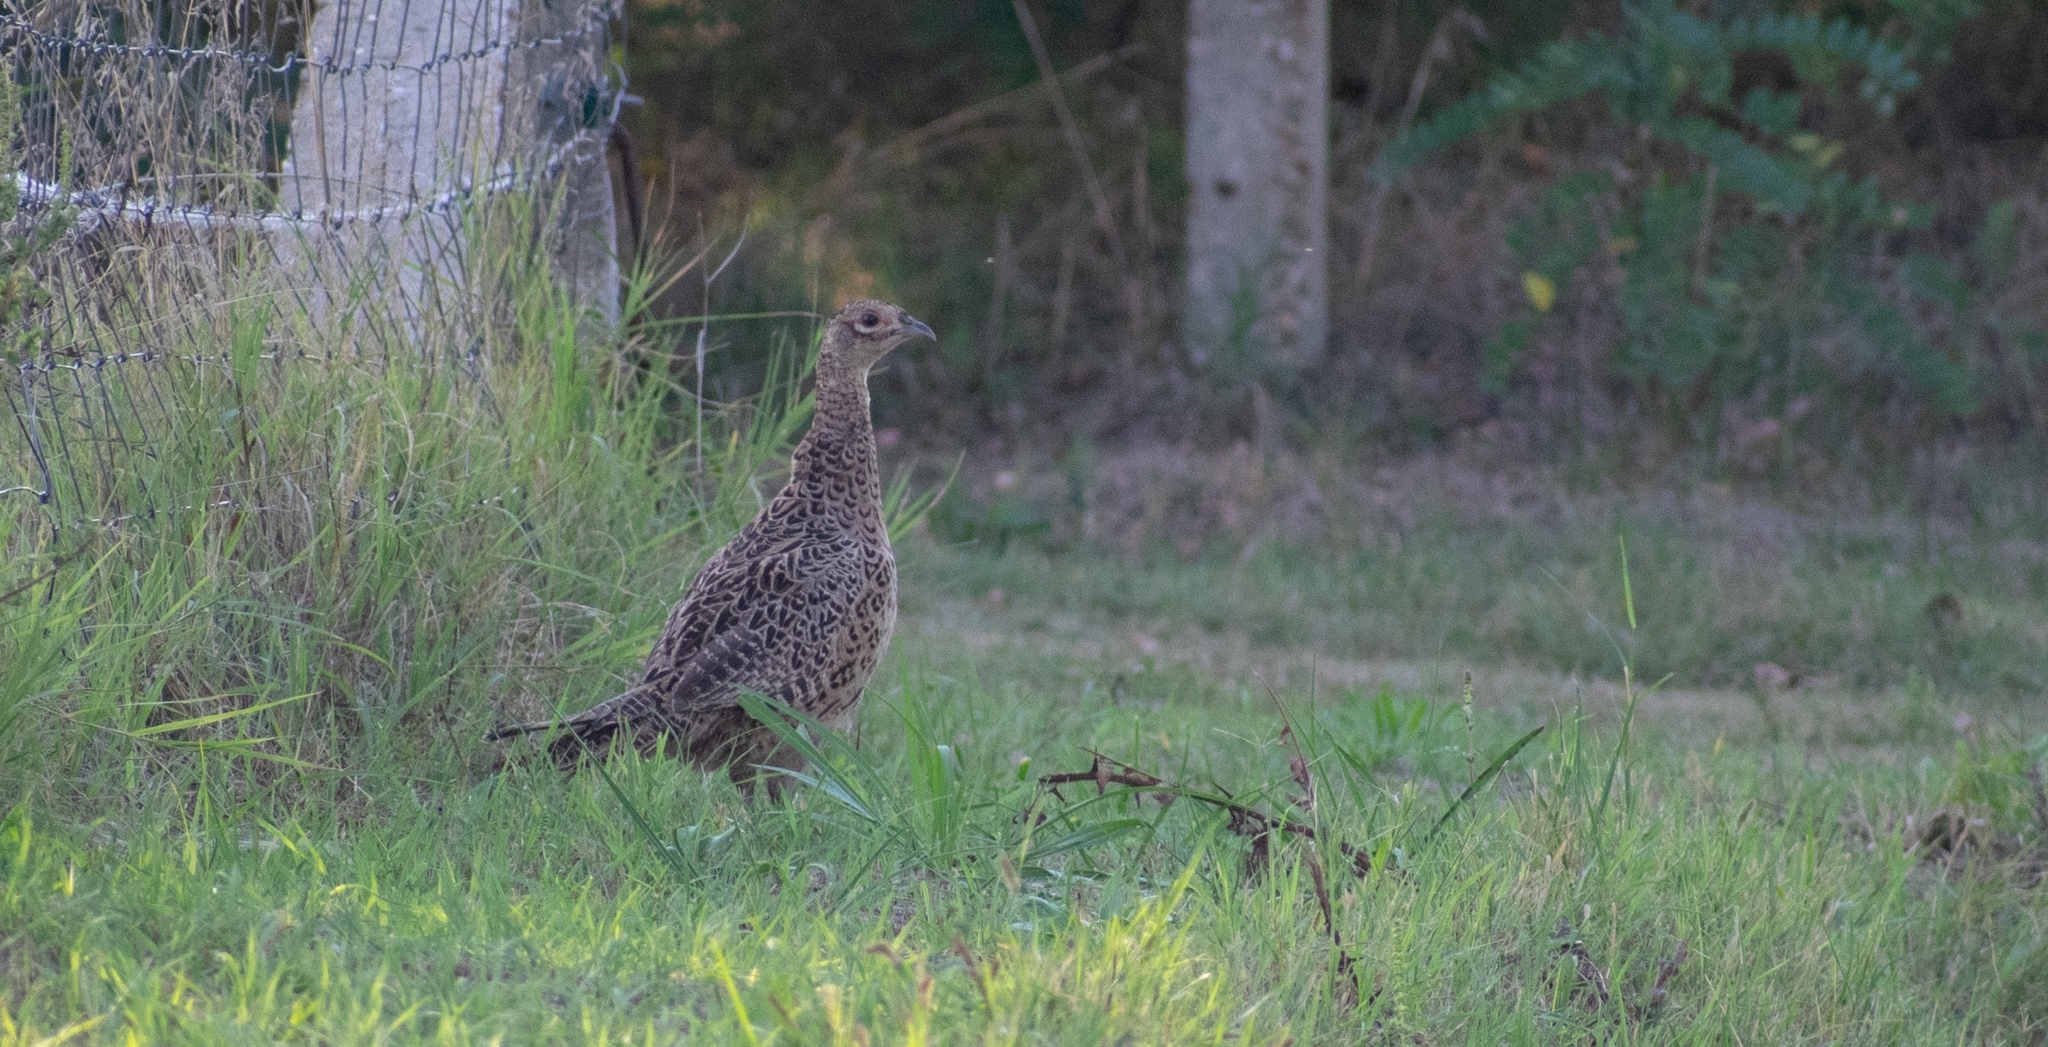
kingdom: Animalia
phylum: Chordata
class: Aves
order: Galliformes
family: Phasianidae
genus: Phasianus
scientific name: Phasianus colchicus
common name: Common pheasant
